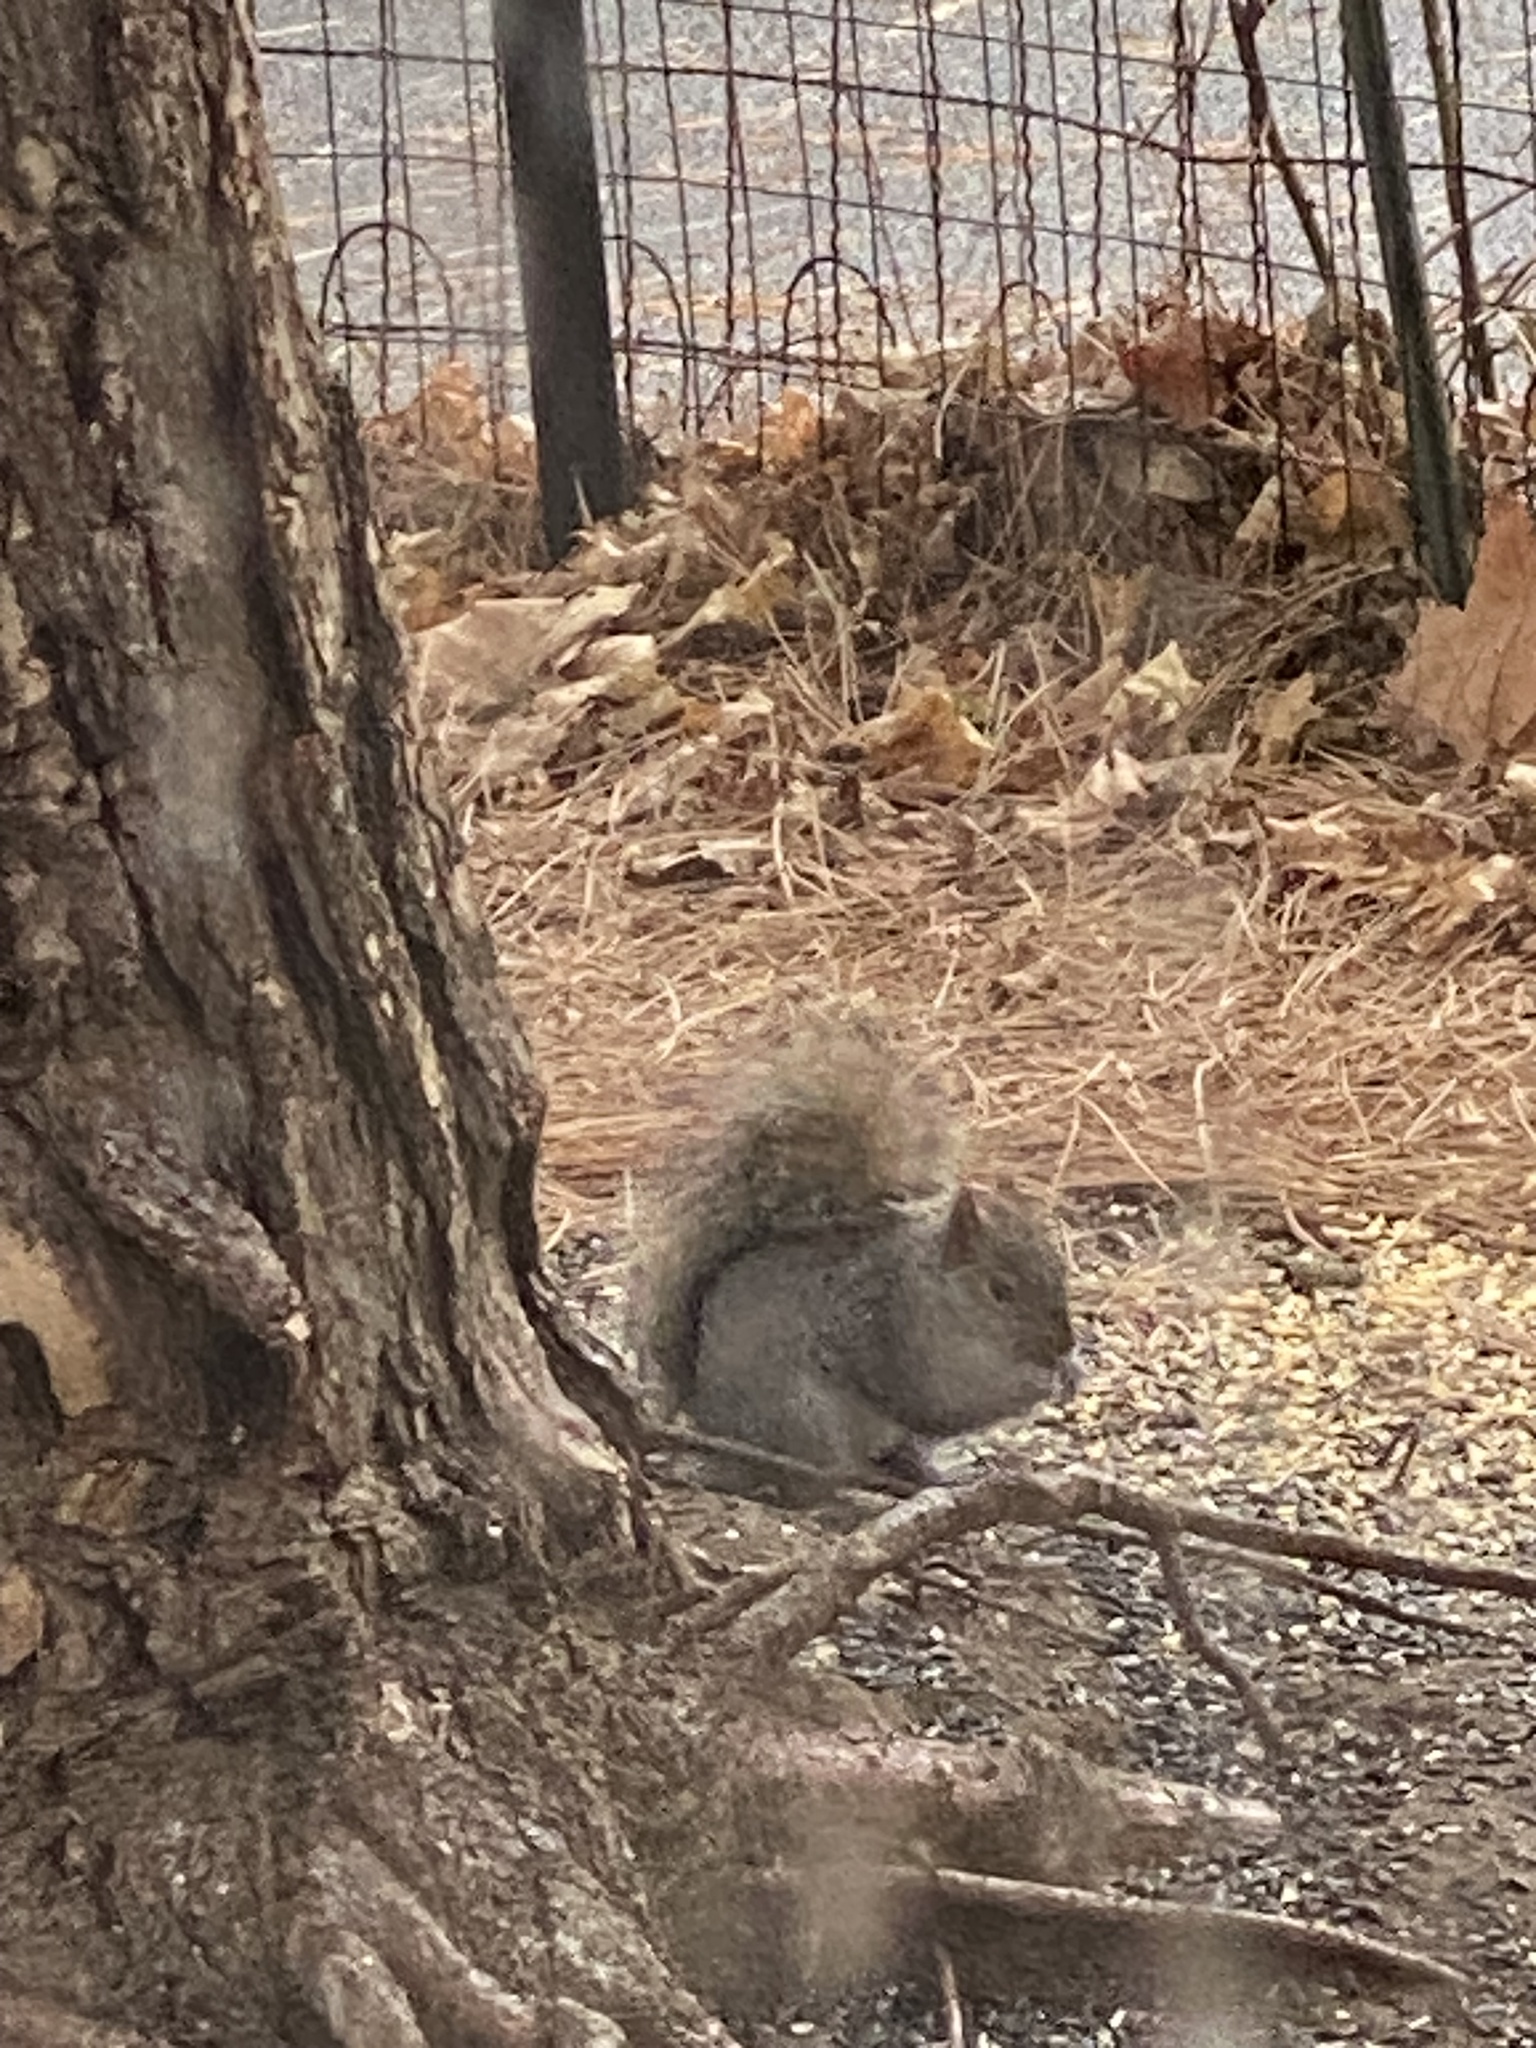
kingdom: Animalia
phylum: Chordata
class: Mammalia
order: Rodentia
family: Sciuridae
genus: Sciurus
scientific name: Sciurus carolinensis
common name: Eastern gray squirrel
